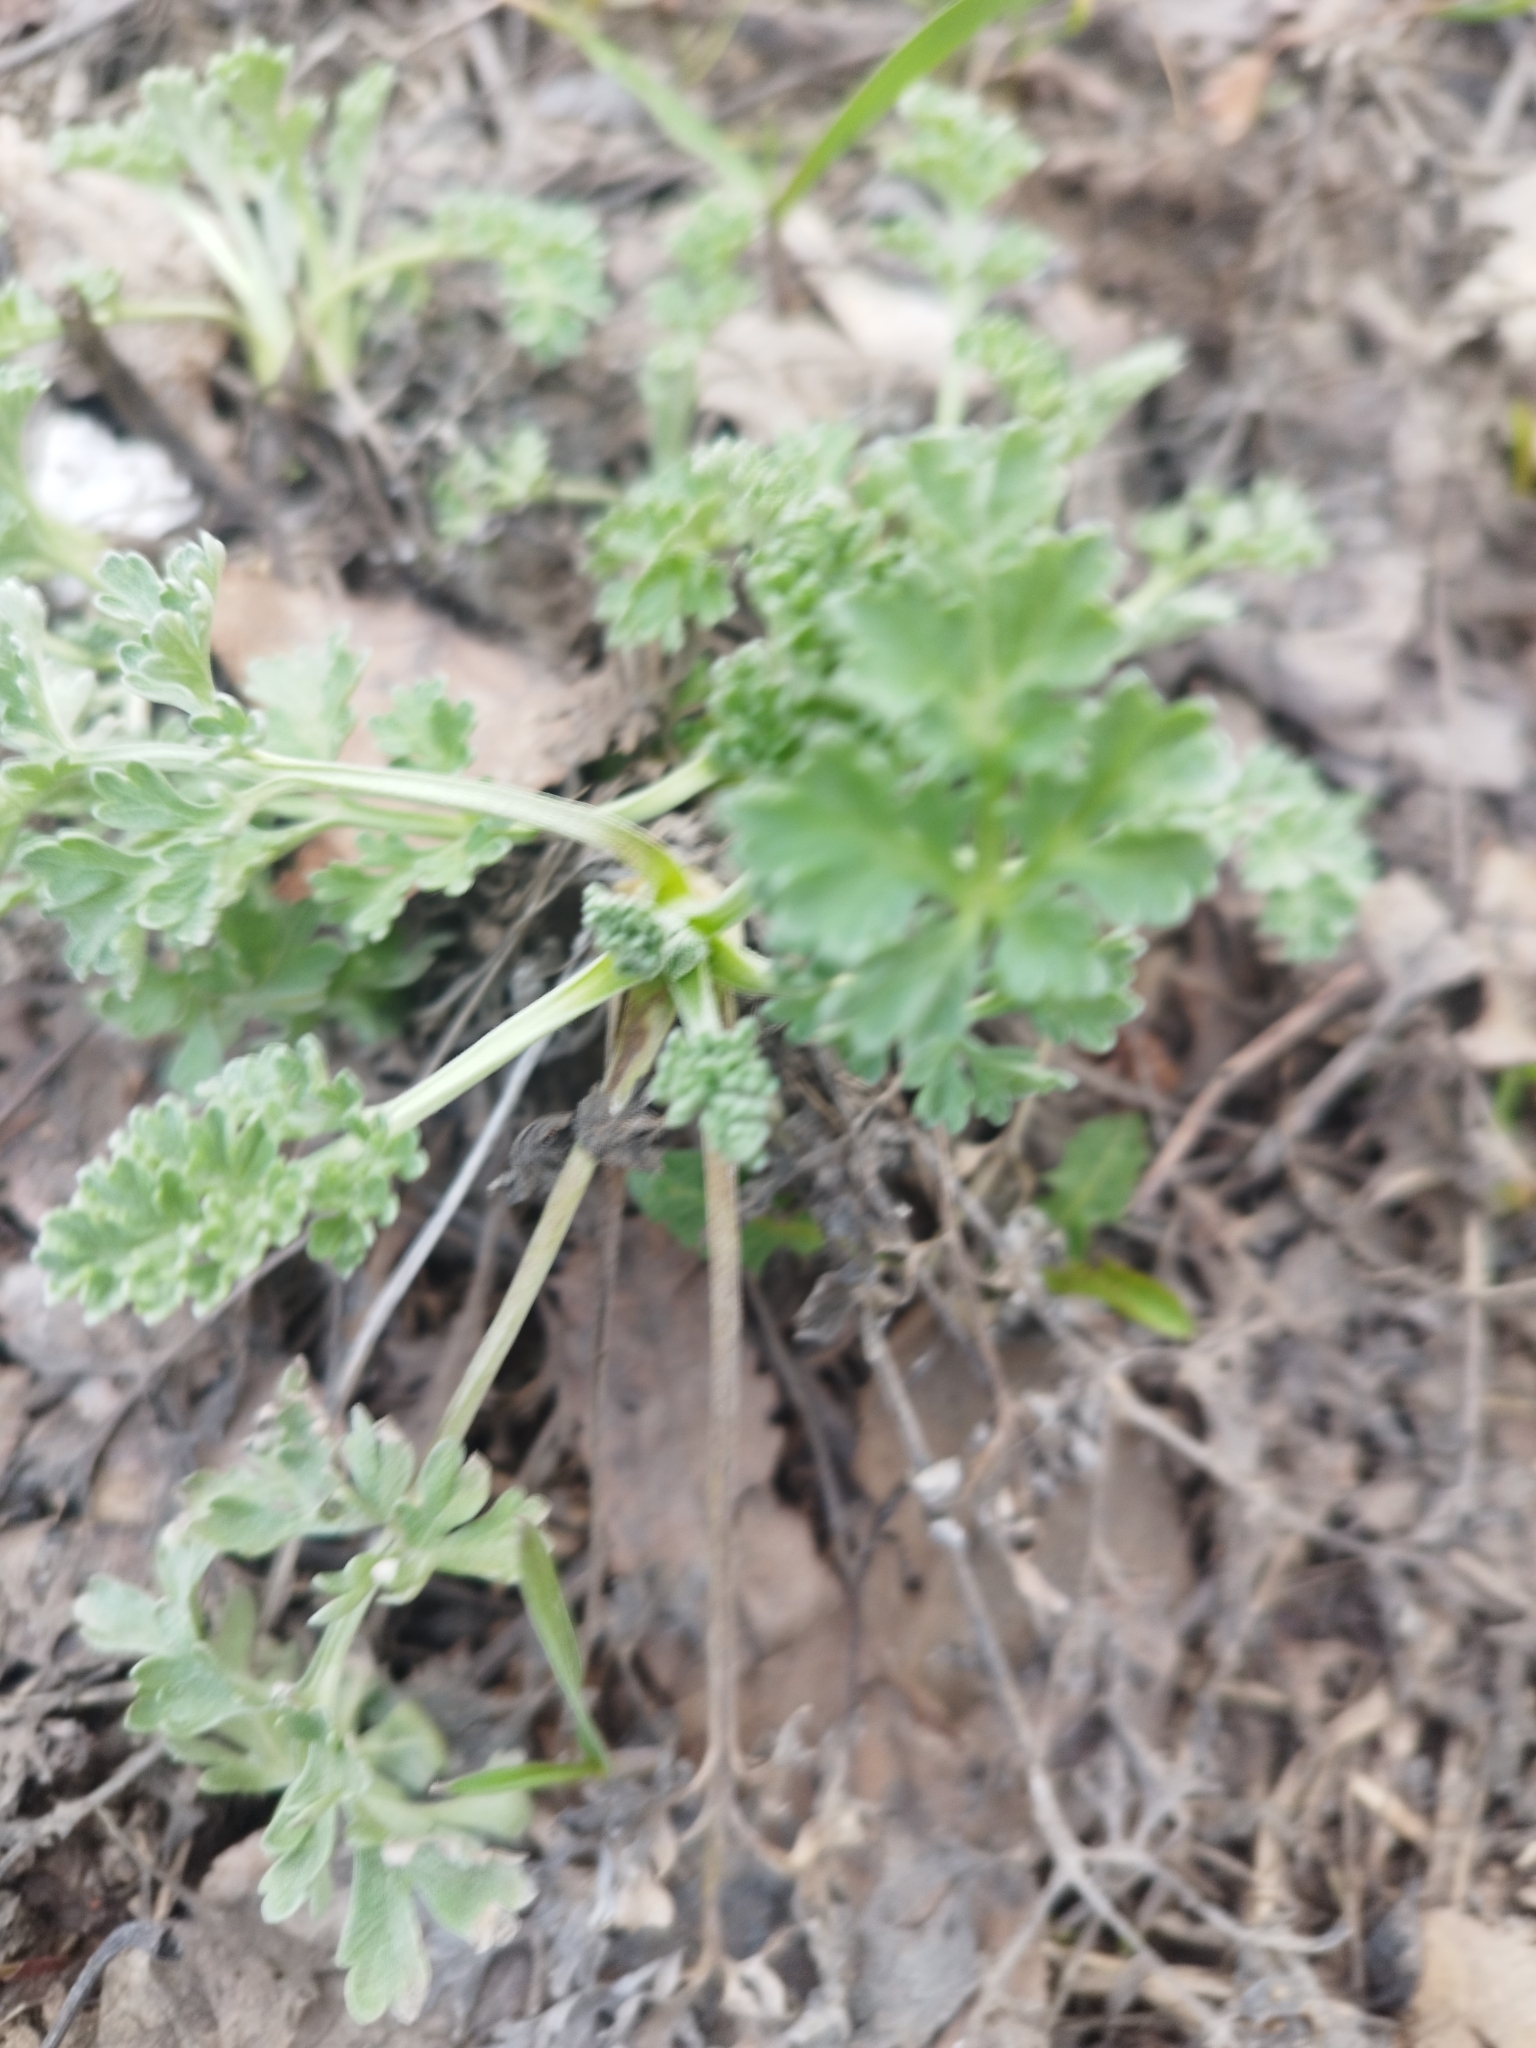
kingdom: Plantae
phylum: Tracheophyta
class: Magnoliopsida
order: Asterales
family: Asteraceae
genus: Artemisia
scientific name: Artemisia absinthium
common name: Wormwood
